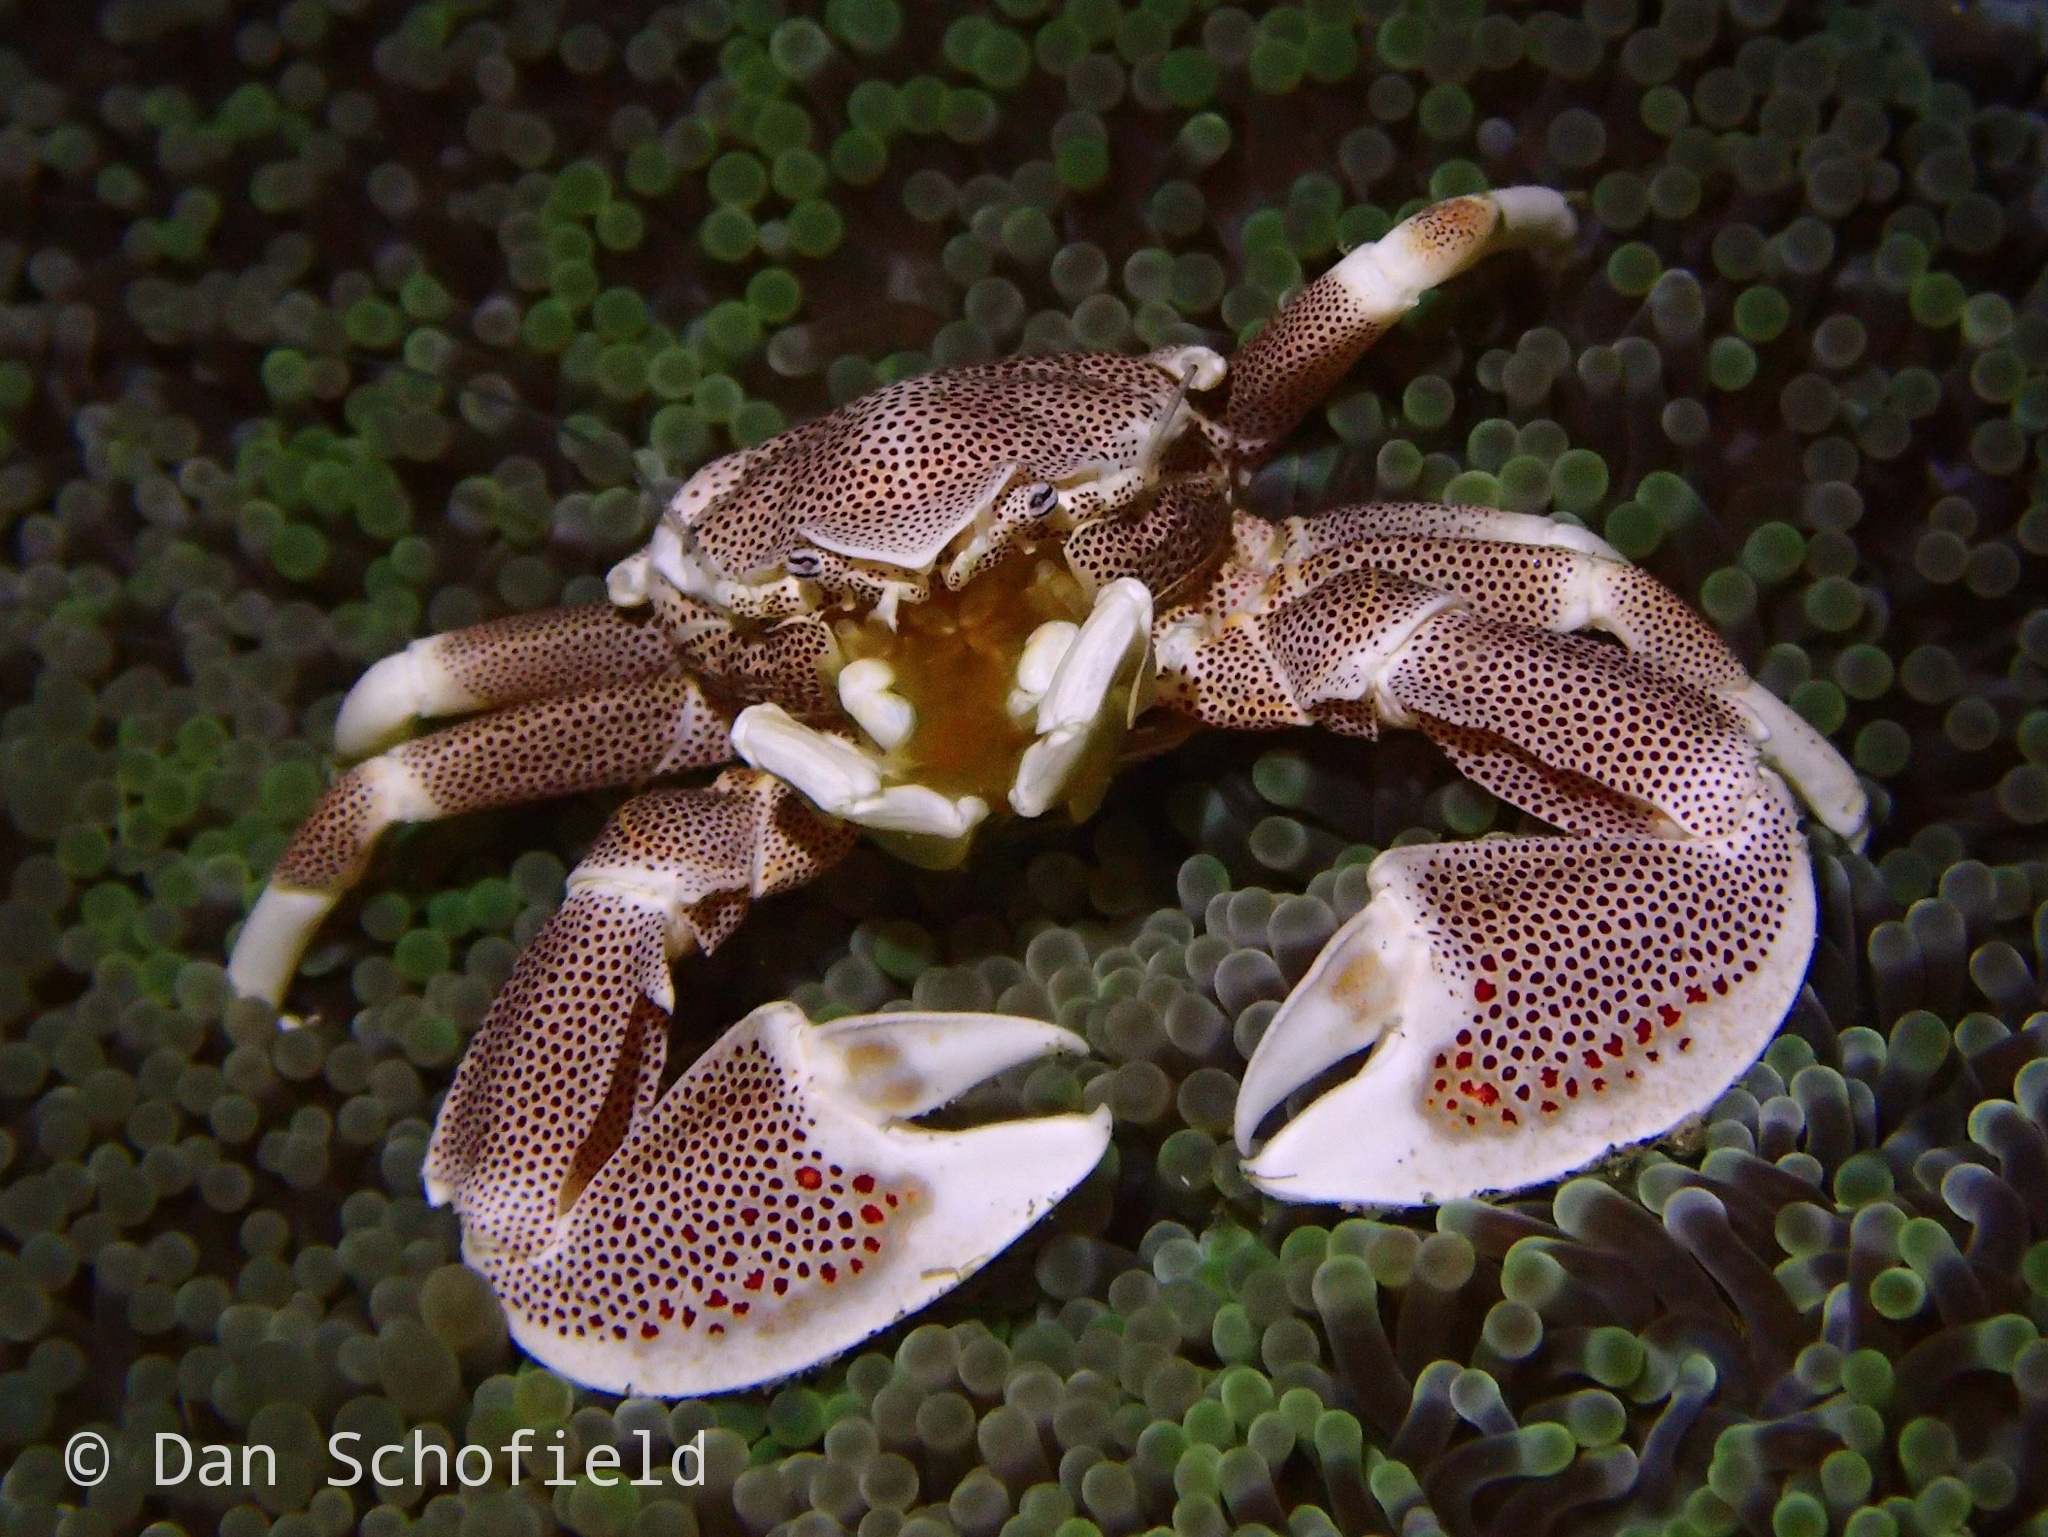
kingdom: Animalia
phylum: Arthropoda
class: Malacostraca
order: Decapoda
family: Porcellanidae
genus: Neopetrolisthes
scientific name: Neopetrolisthes maculatus
